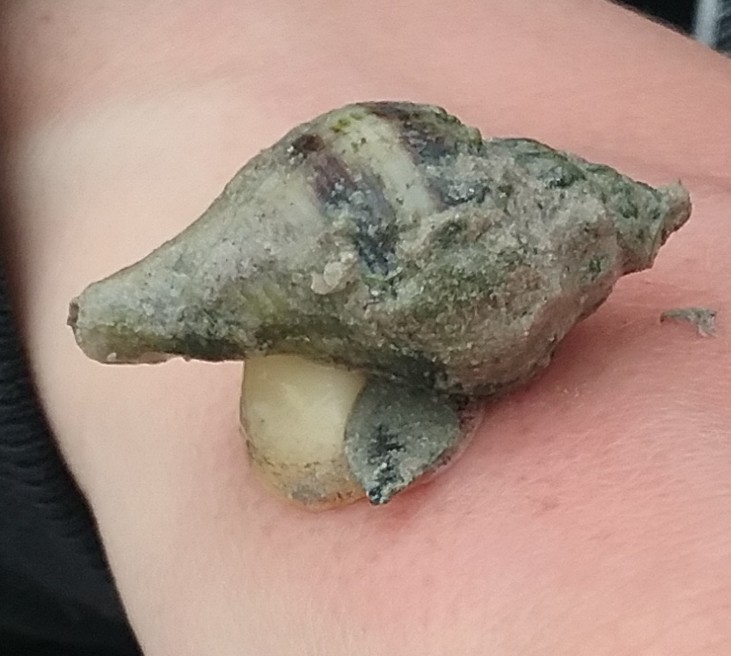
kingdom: Animalia
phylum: Mollusca
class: Gastropoda
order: Neogastropoda
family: Melongenidae
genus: Melongena
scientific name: Melongena corona
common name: American crown conch
